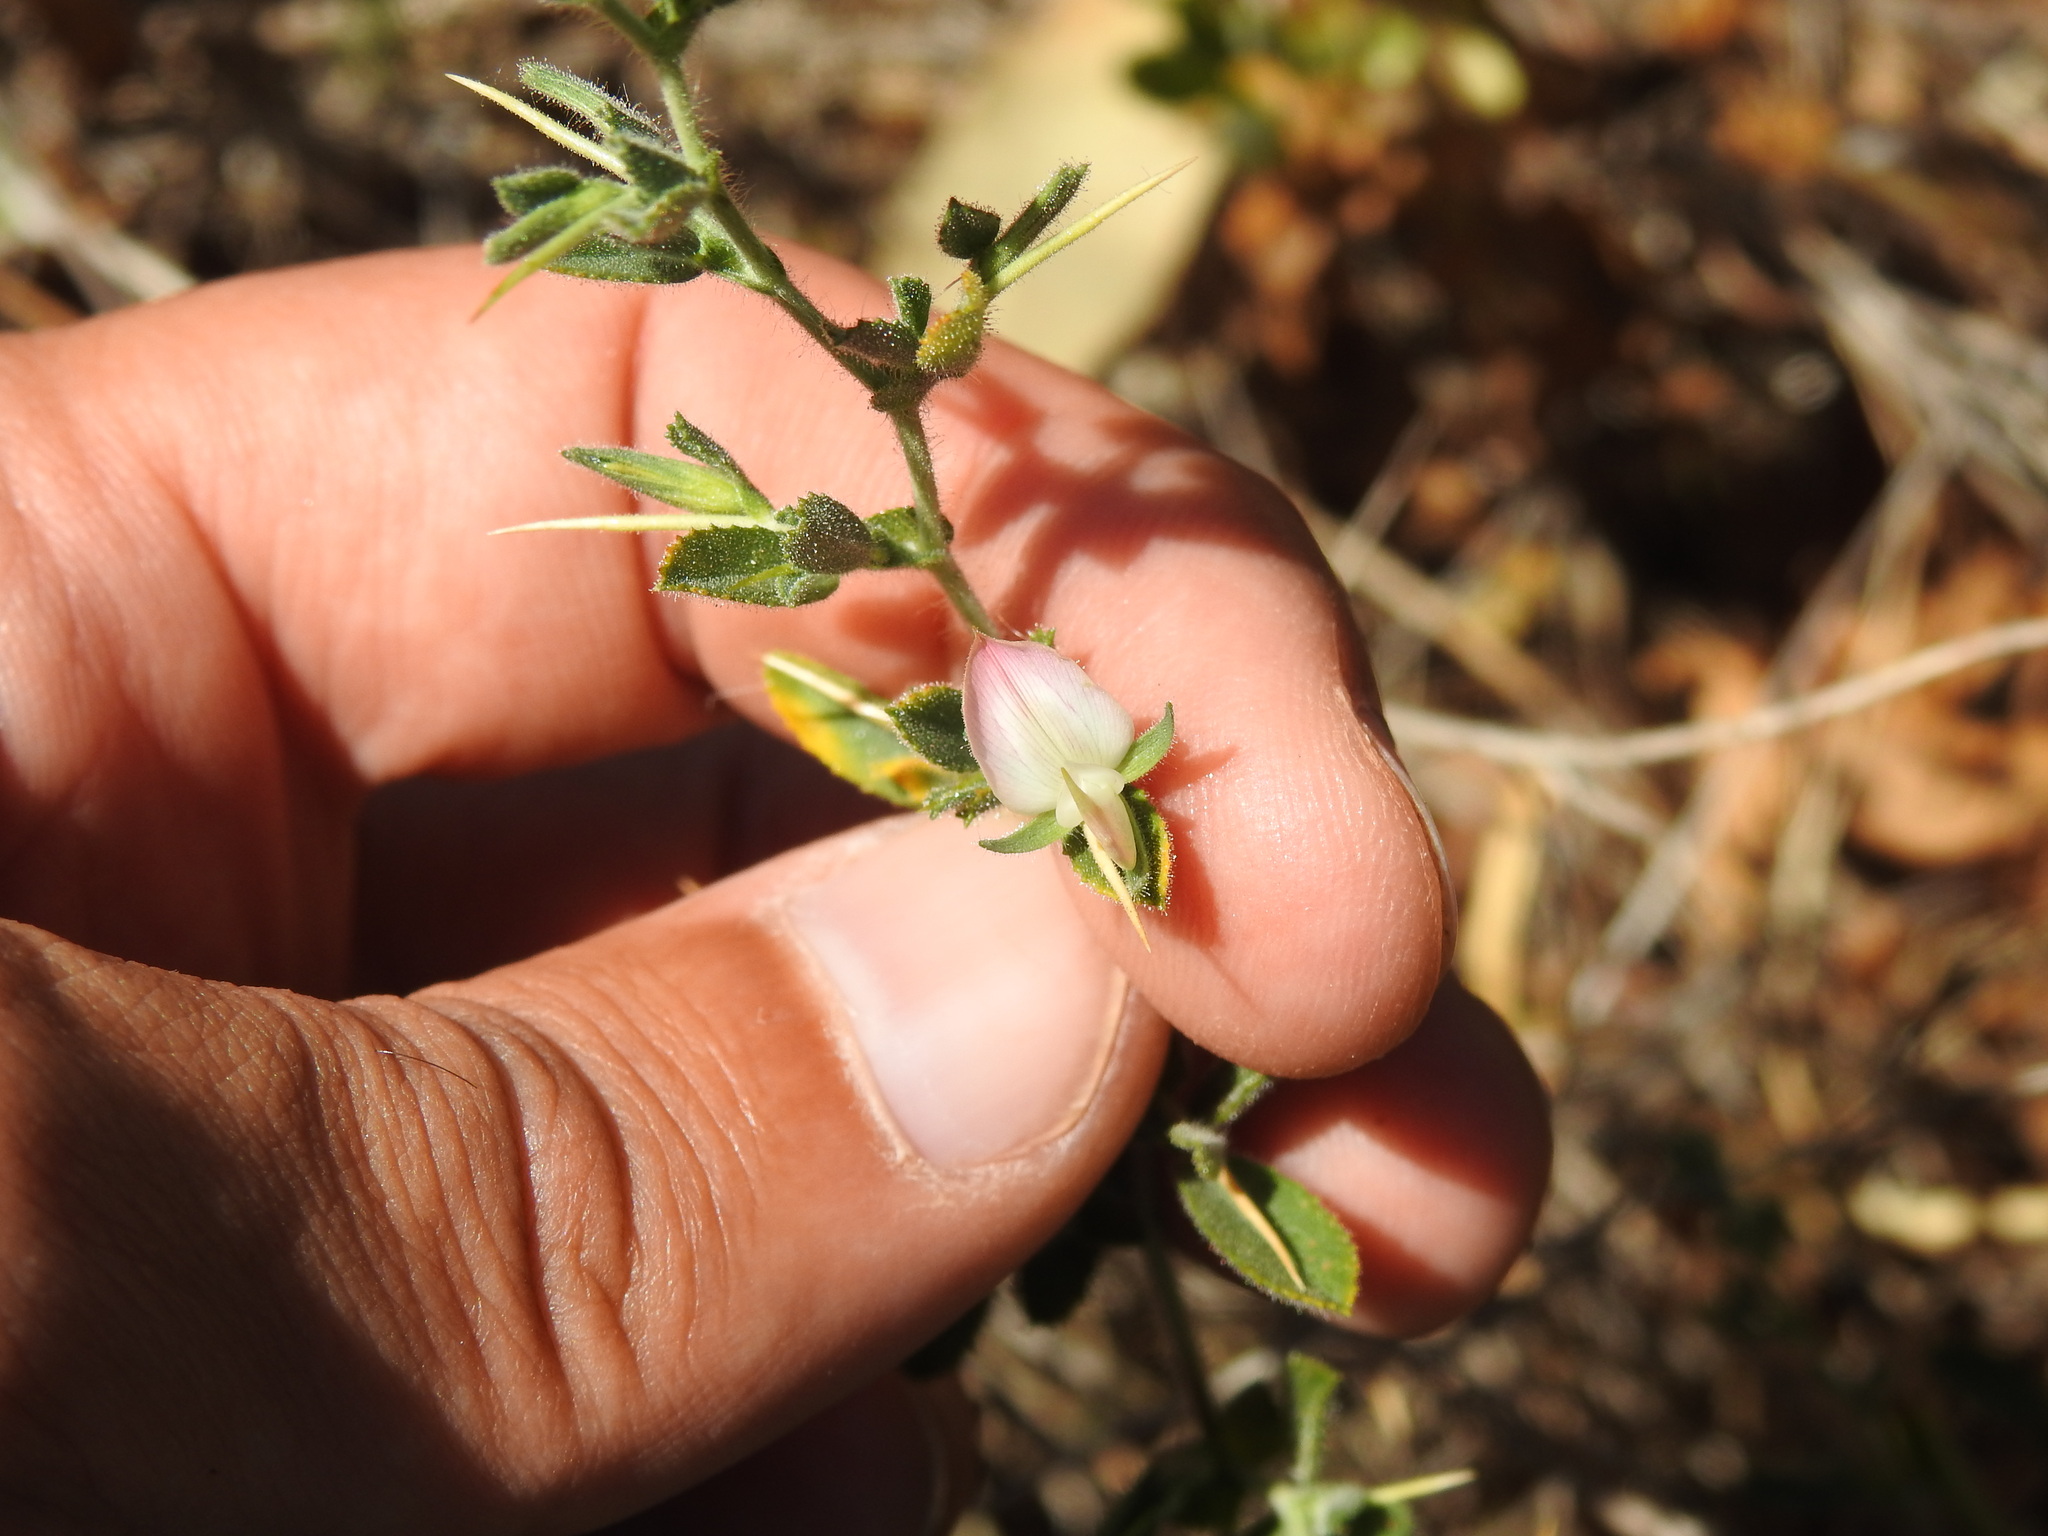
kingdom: Plantae
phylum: Tracheophyta
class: Magnoliopsida
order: Fabales
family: Fabaceae
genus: Ononis
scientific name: Ononis spinosa
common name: Spiny restharrow
